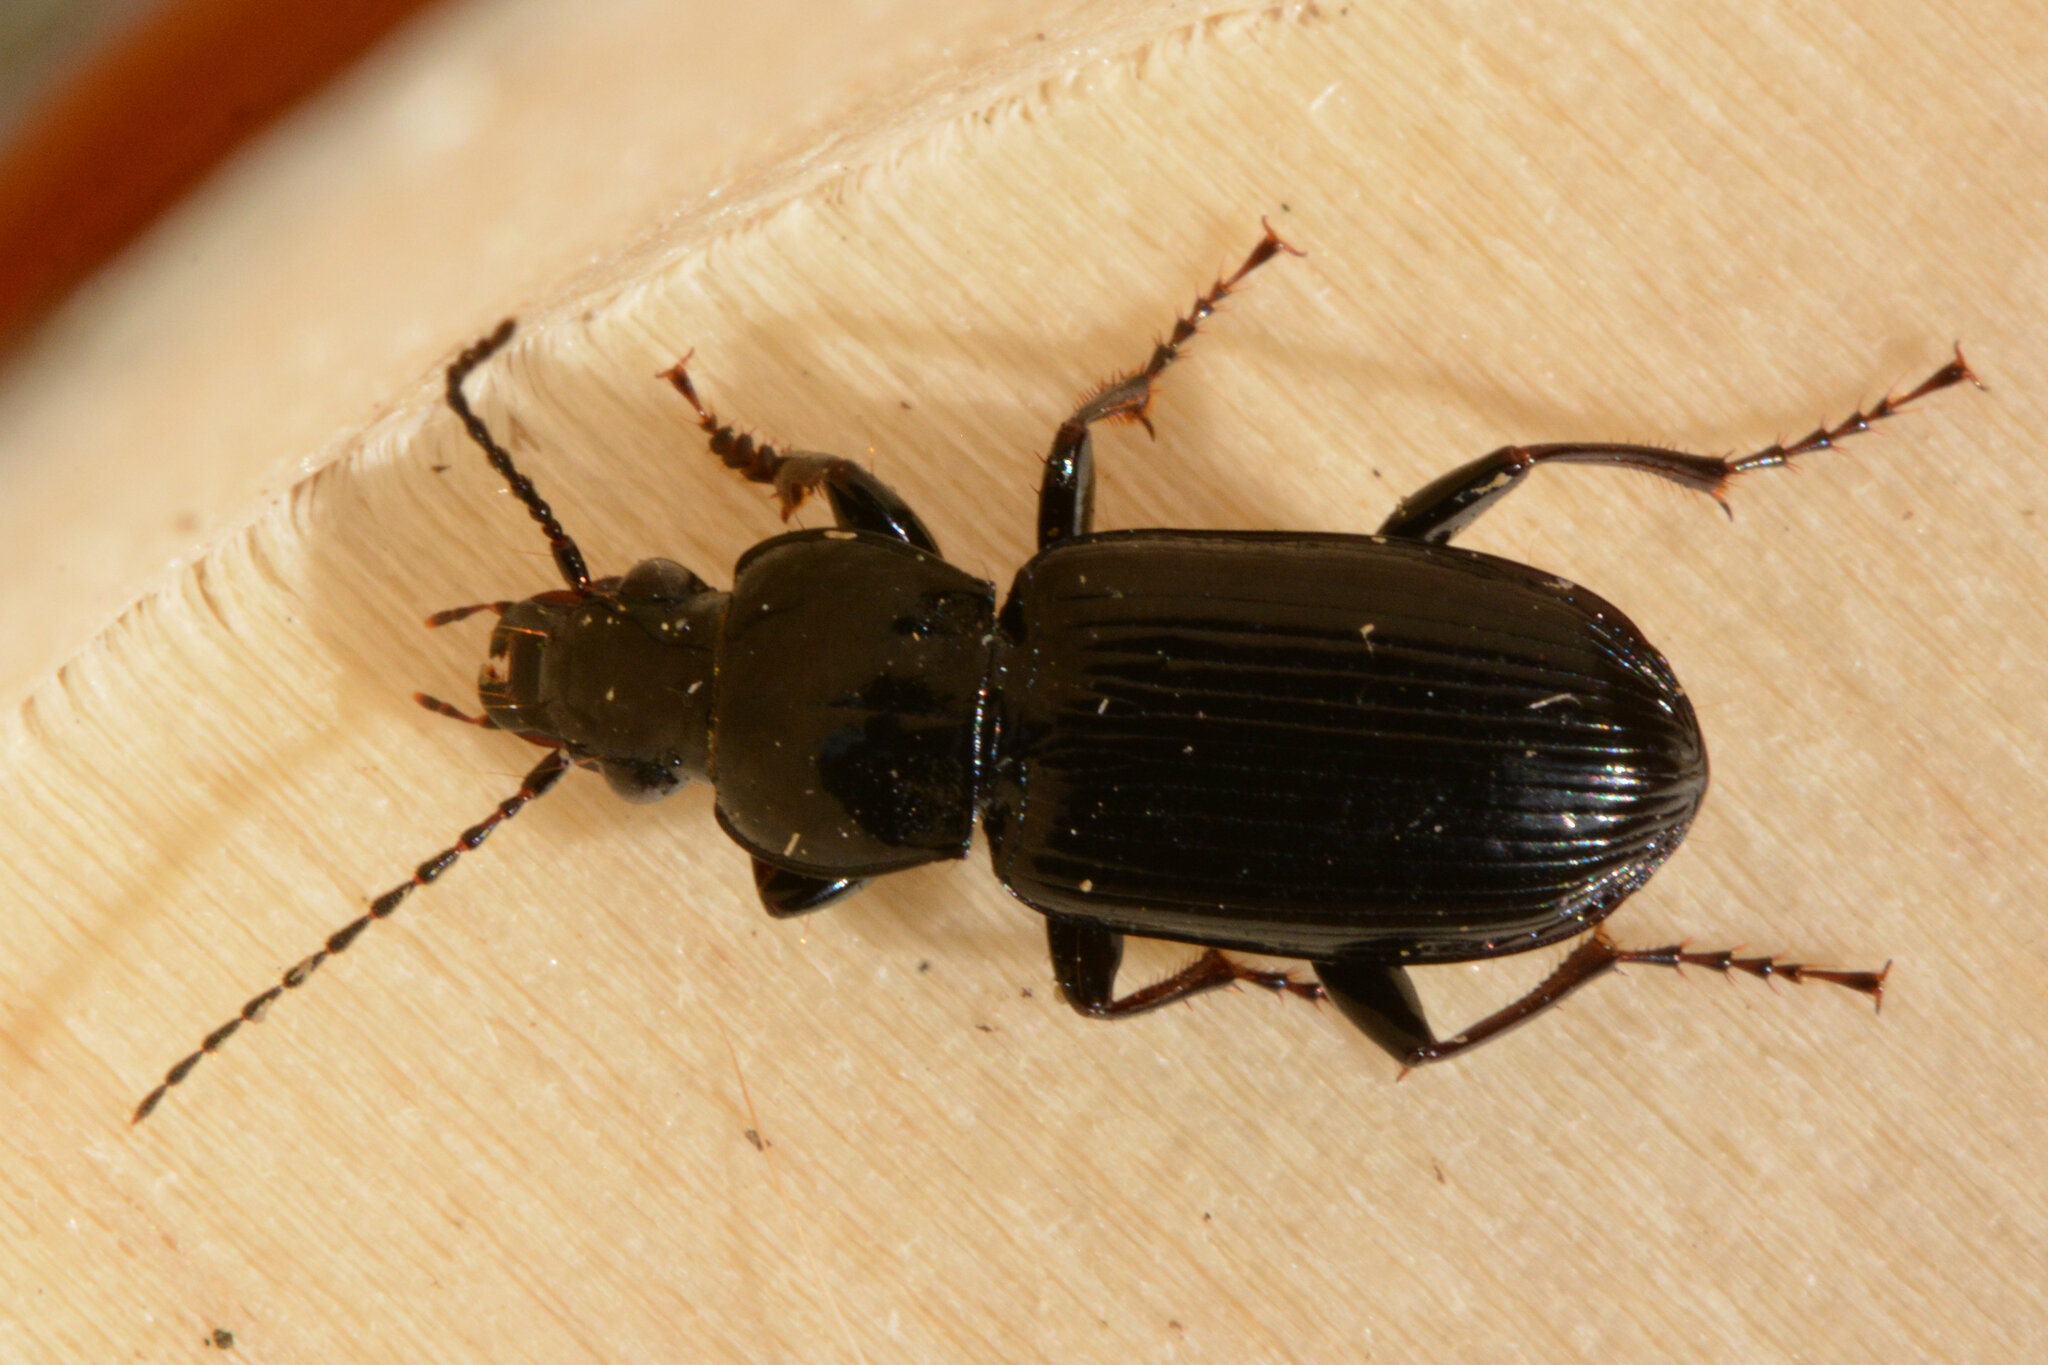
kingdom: Animalia
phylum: Arthropoda
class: Insecta
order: Coleoptera
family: Carabidae
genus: Pterostichus
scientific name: Pterostichus anthracinus
